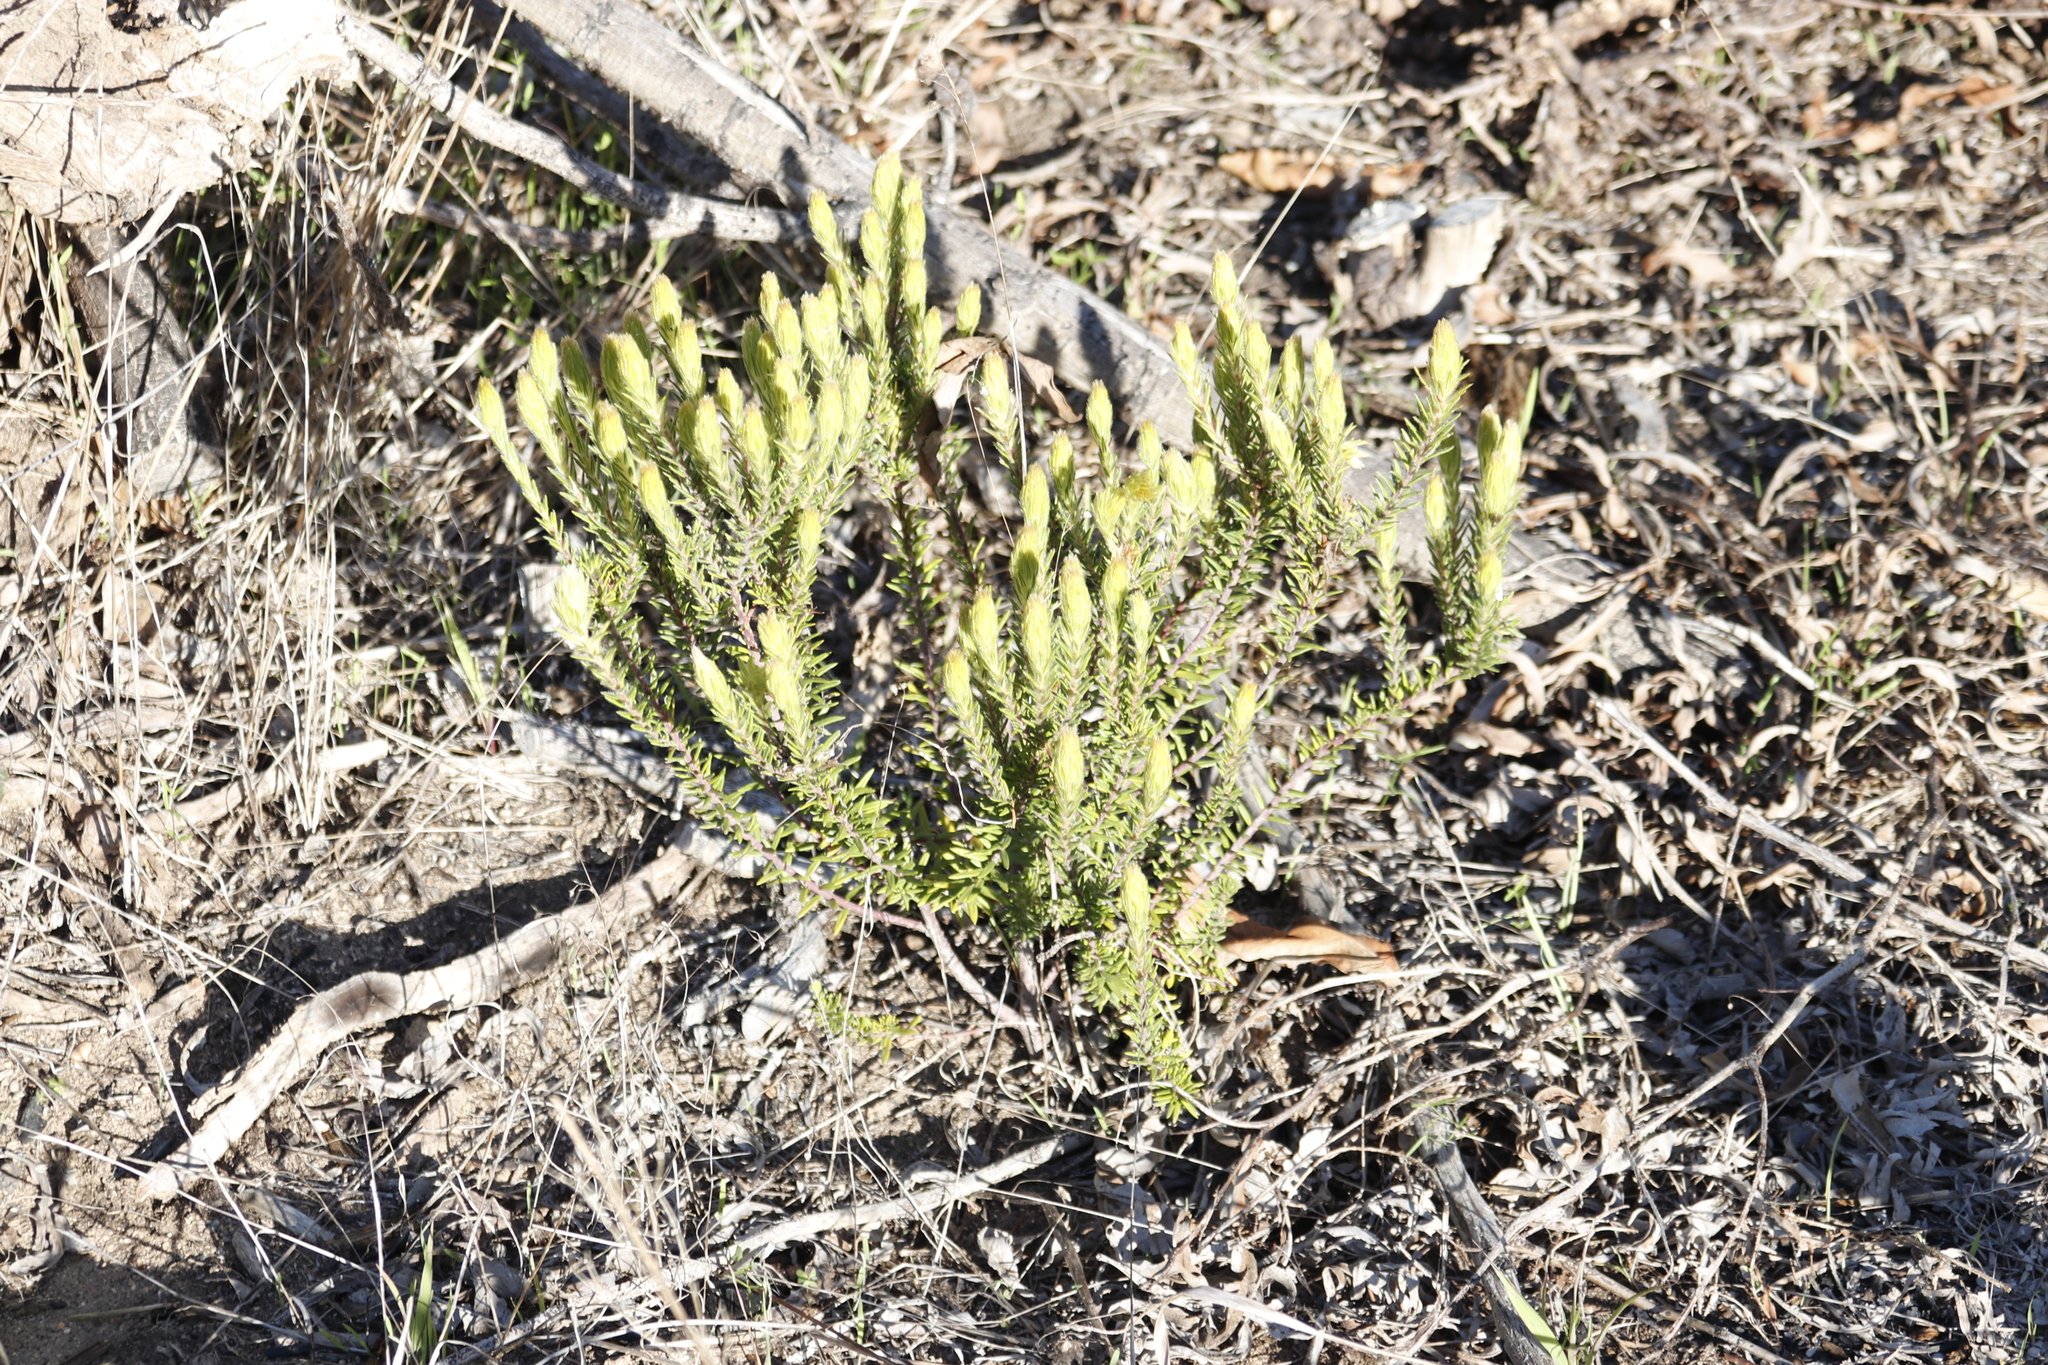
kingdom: Plantae
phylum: Tracheophyta
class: Magnoliopsida
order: Rosales
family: Rhamnaceae
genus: Phylica
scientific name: Phylica plumosa
